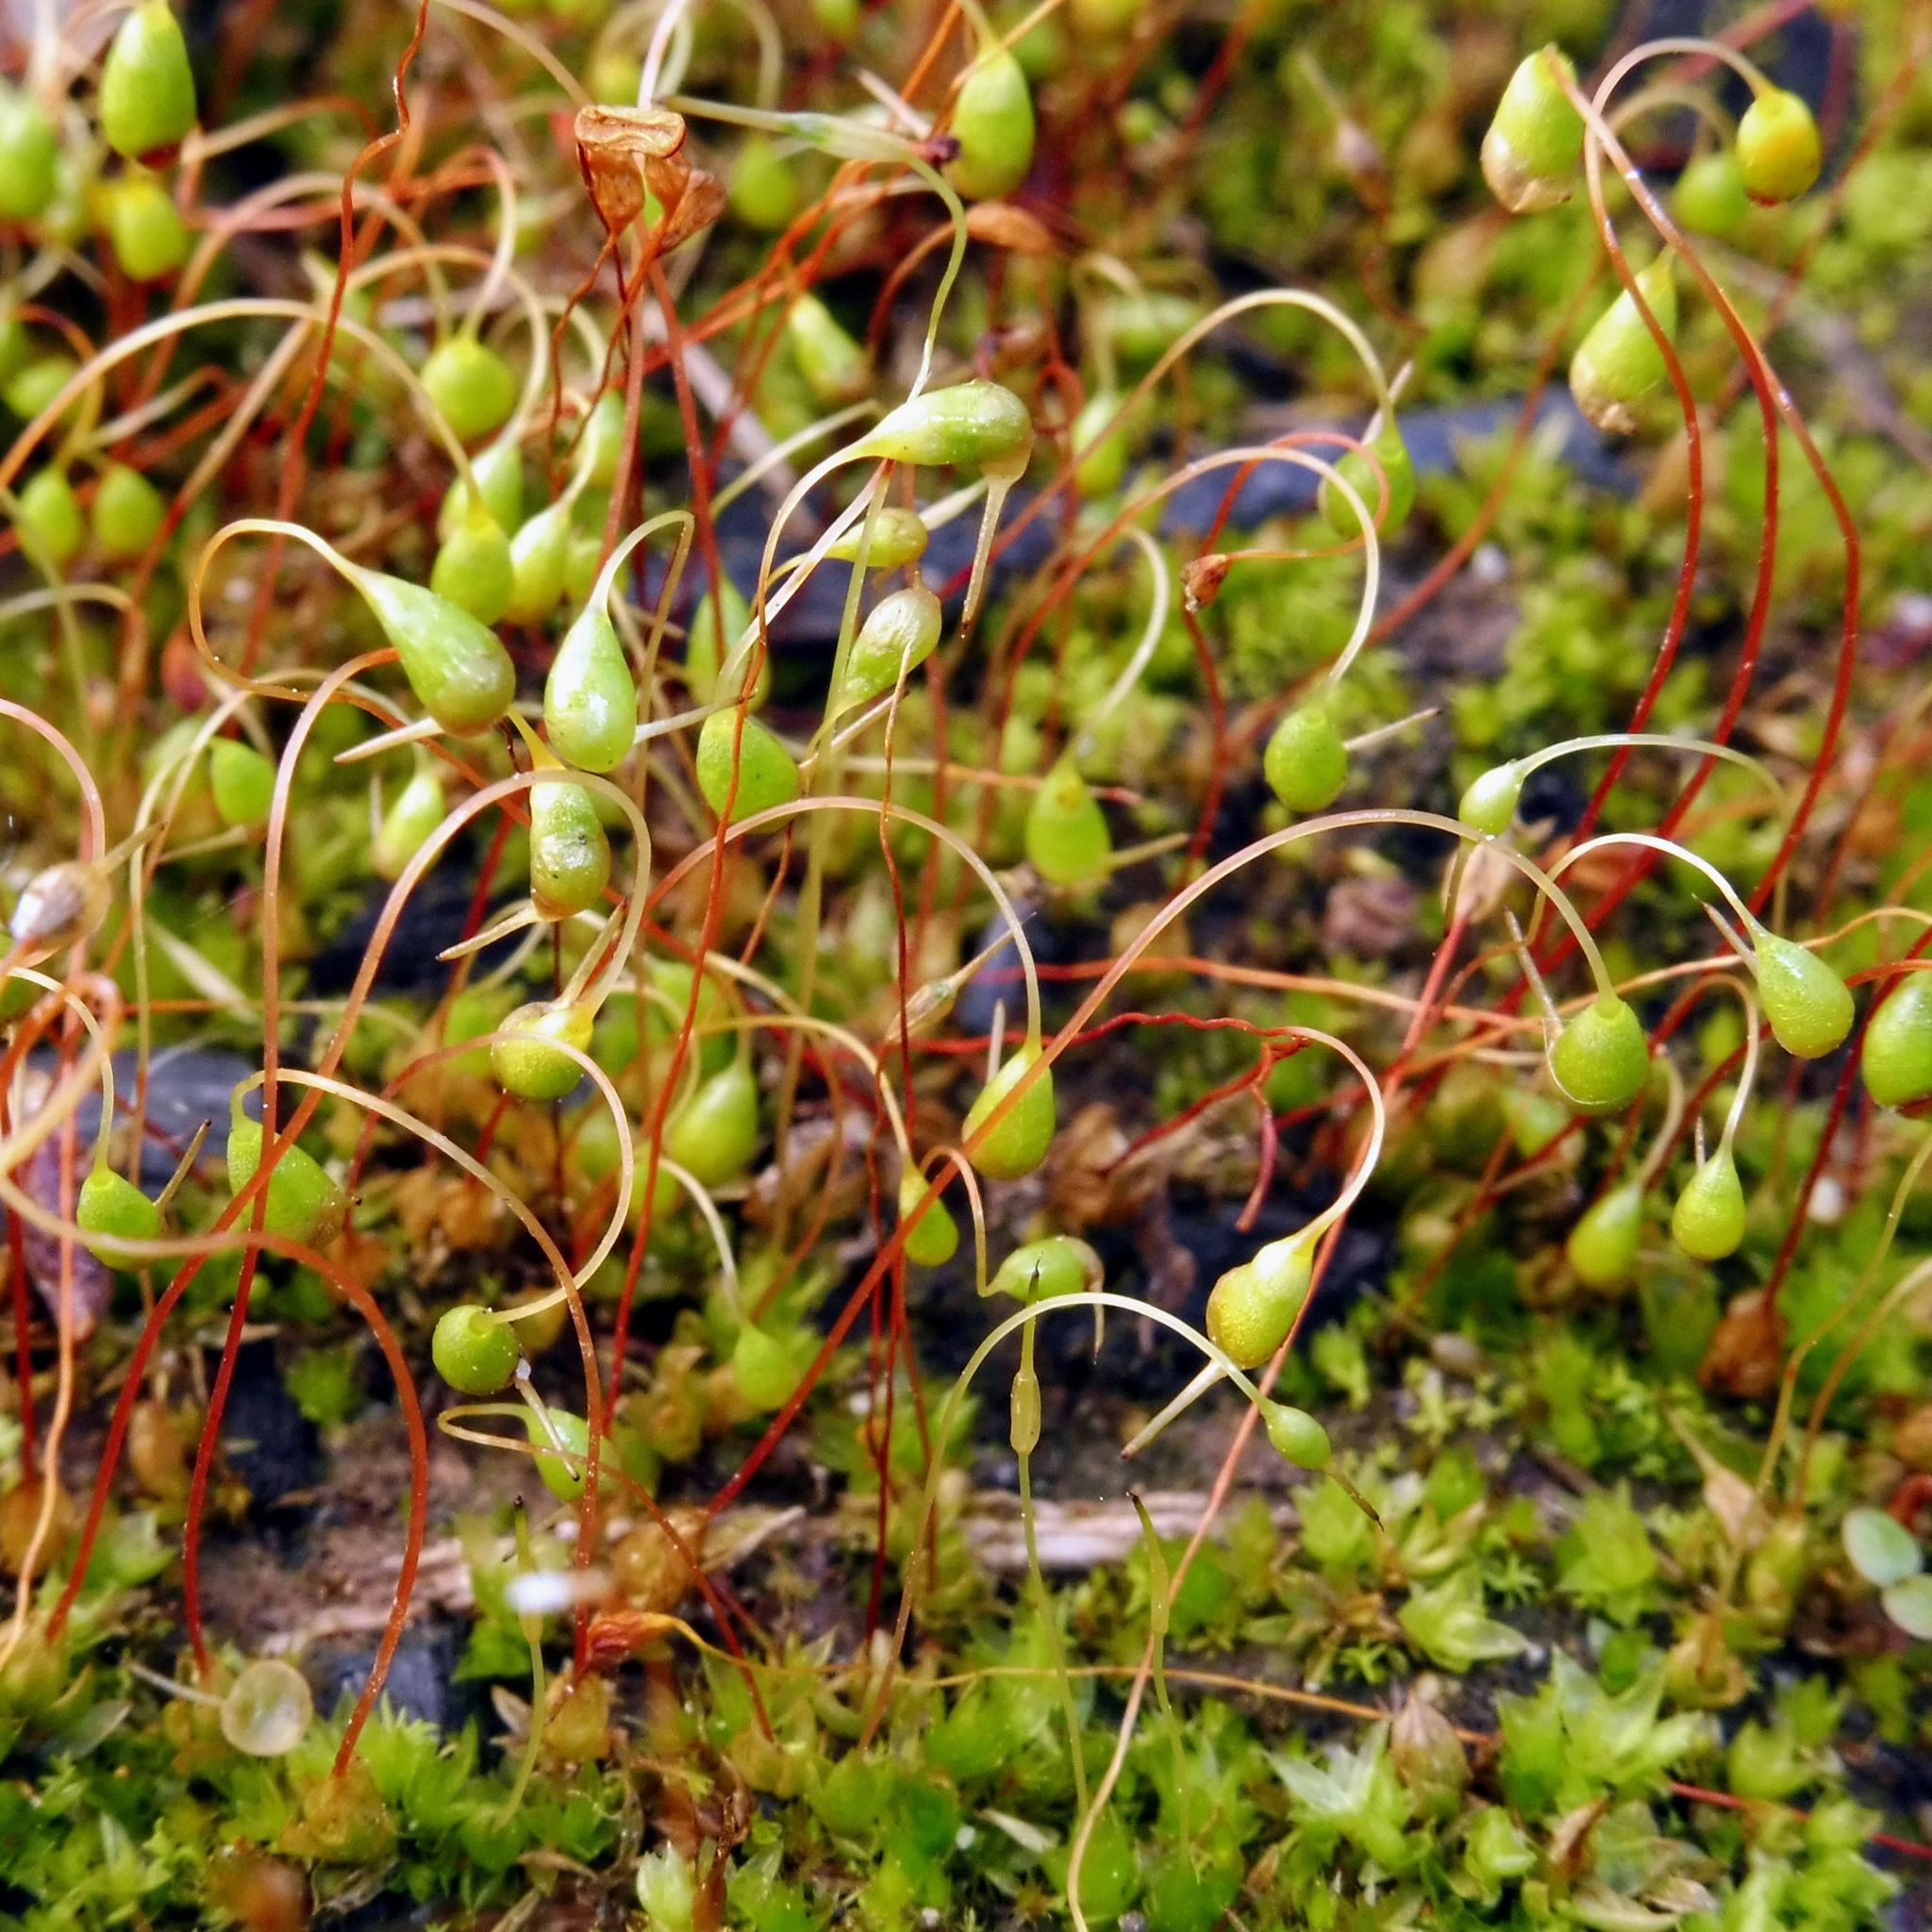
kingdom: Plantae
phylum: Bryophyta
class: Bryopsida
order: Funariales
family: Funariaceae
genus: Funaria
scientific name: Funaria hygrometrica
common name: Common cord moss
